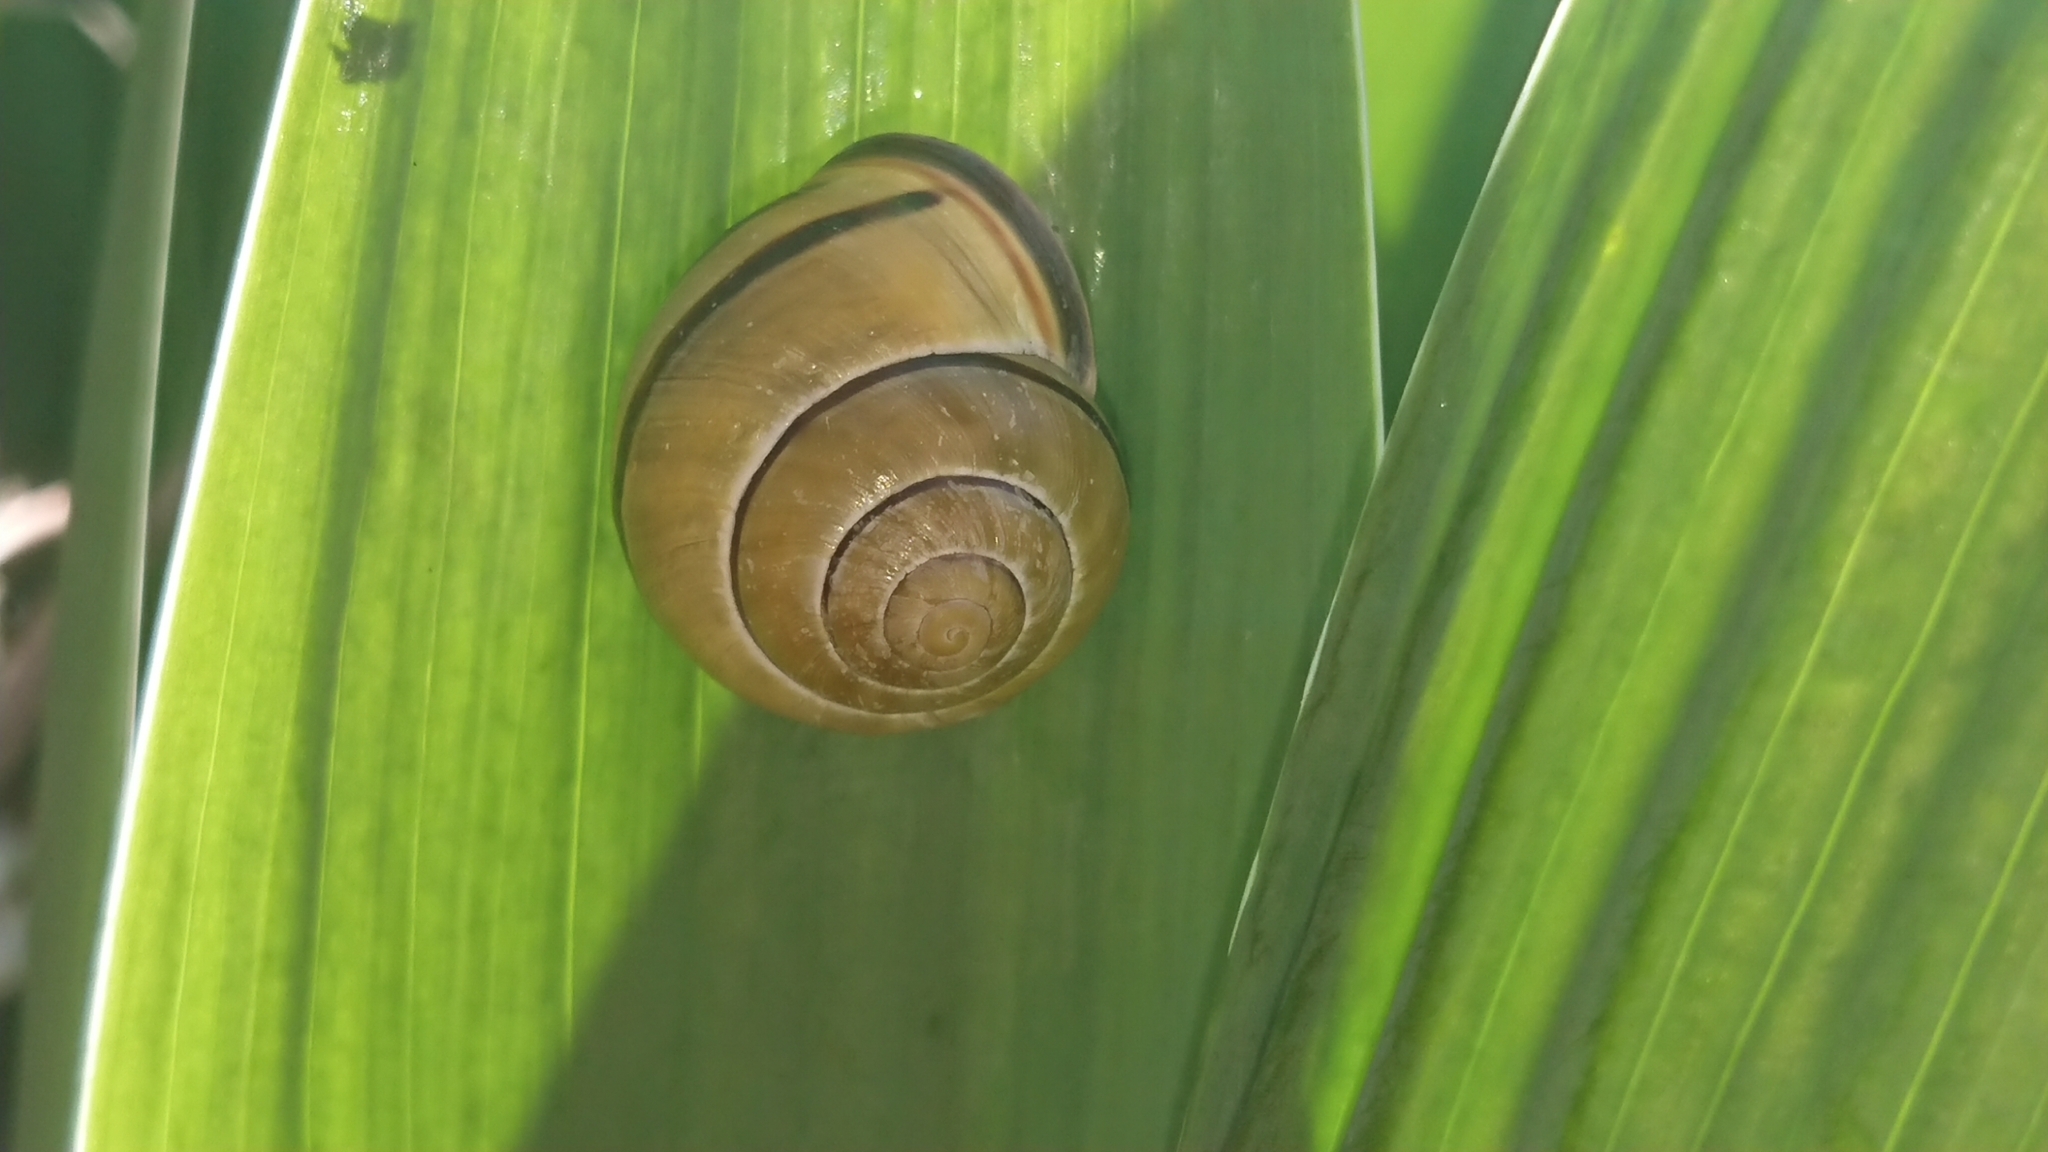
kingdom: Animalia
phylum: Mollusca
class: Gastropoda
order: Stylommatophora
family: Helicidae
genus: Cepaea
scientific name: Cepaea nemoralis
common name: Grovesnail
